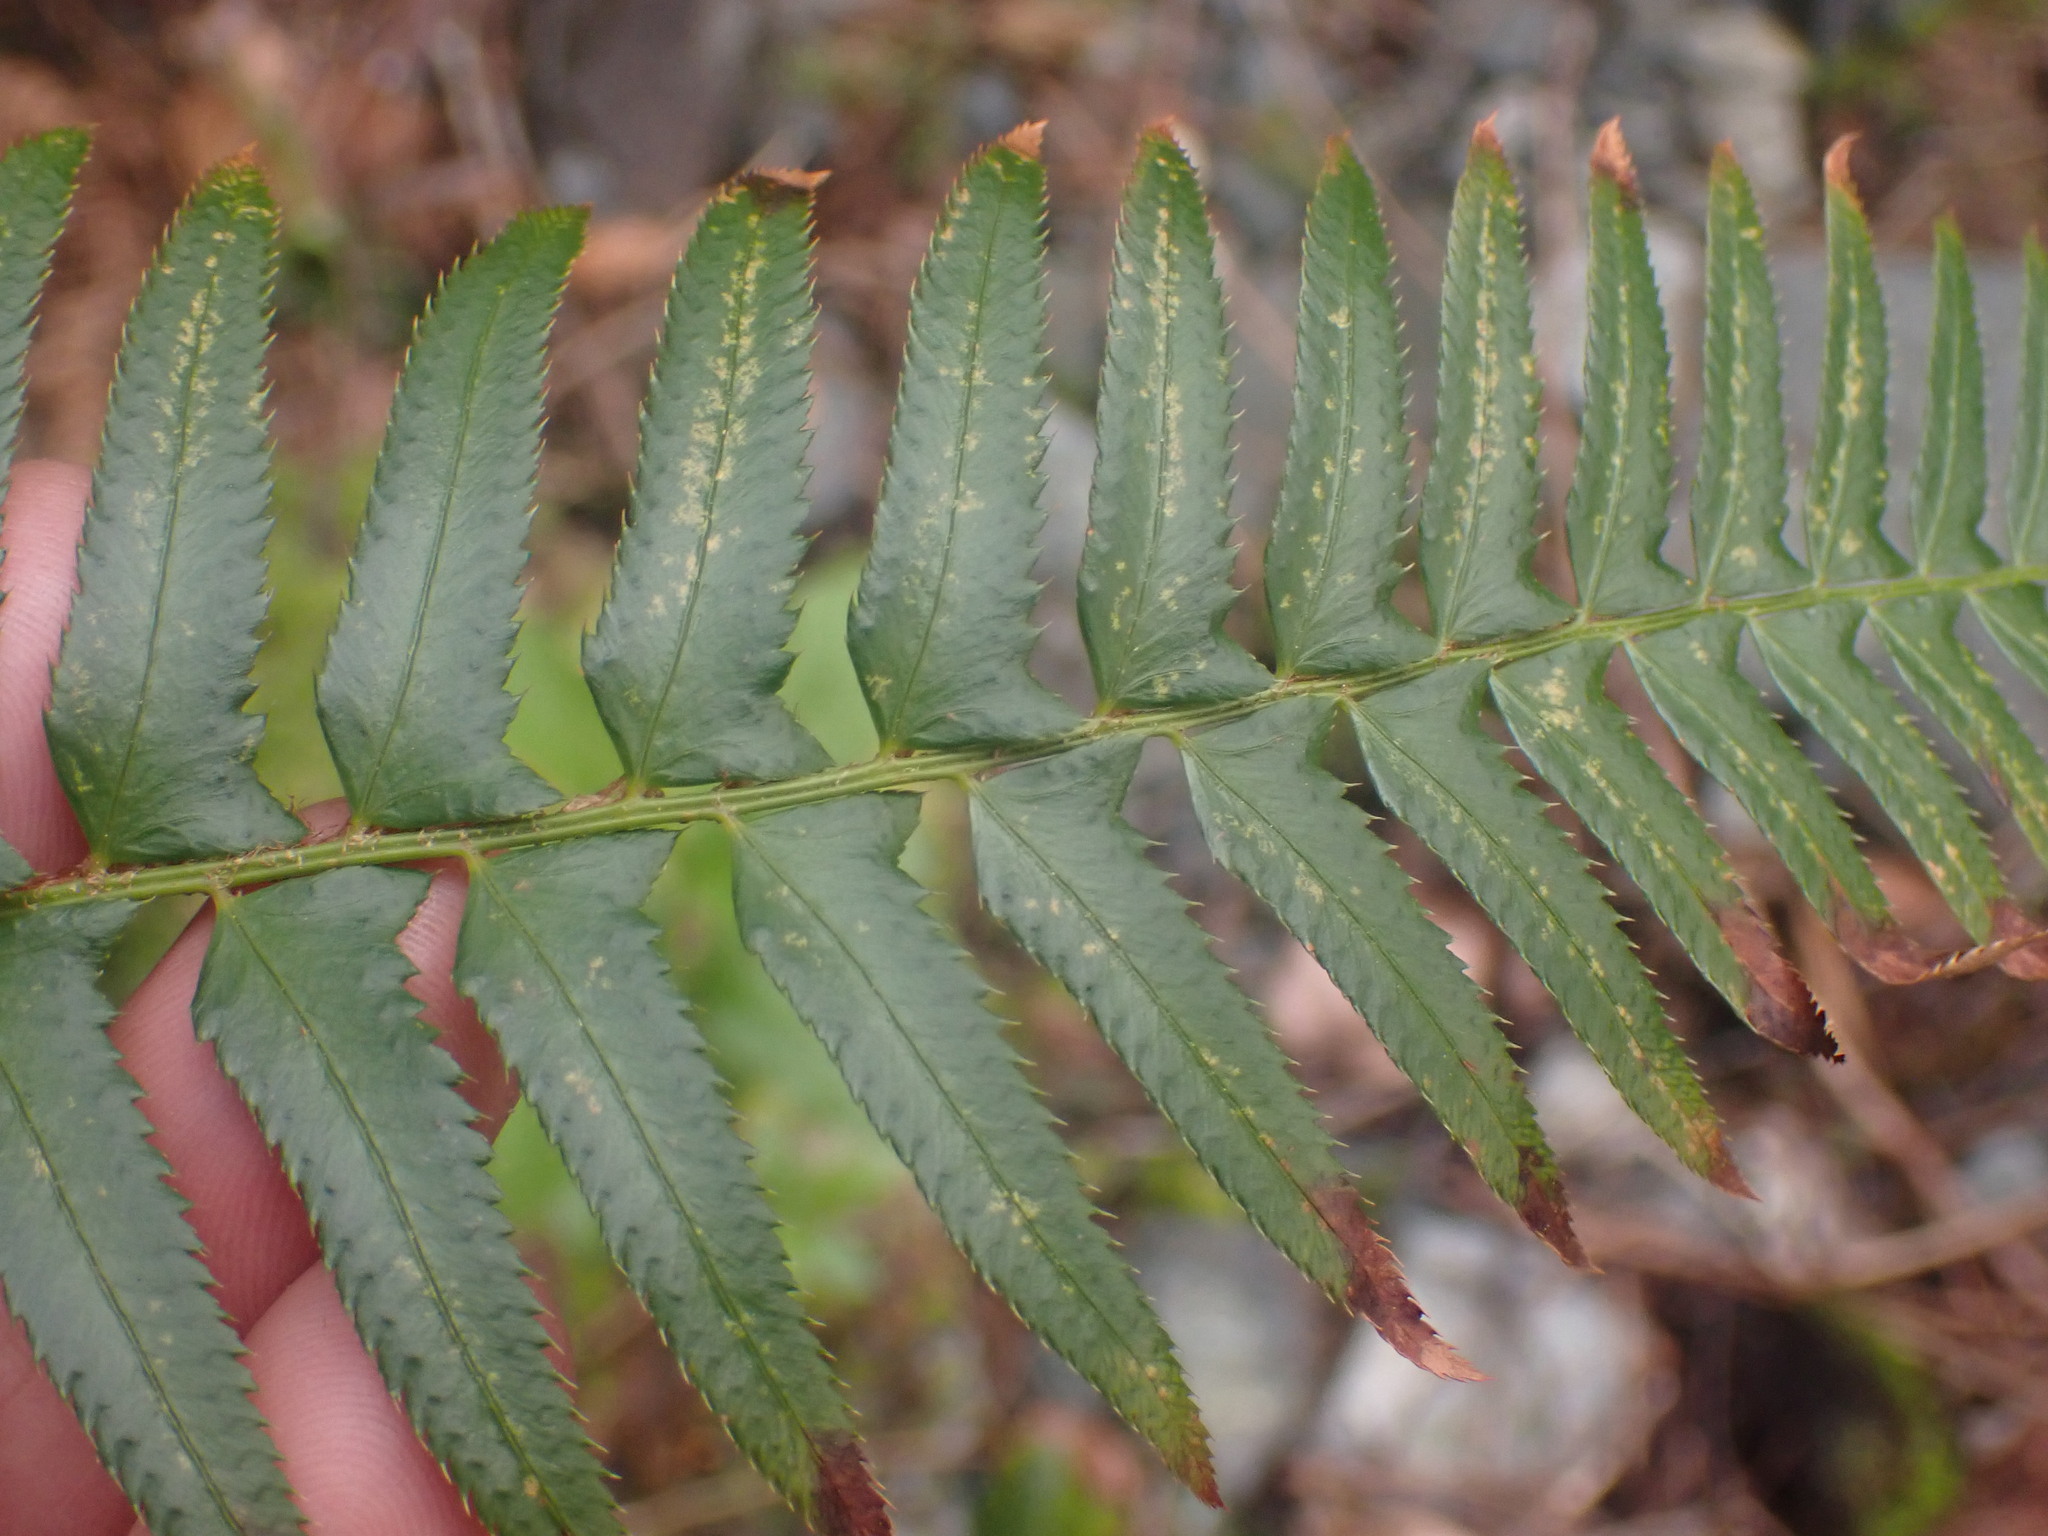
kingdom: Plantae
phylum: Tracheophyta
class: Polypodiopsida
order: Polypodiales
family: Dryopteridaceae
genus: Polystichum
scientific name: Polystichum munitum
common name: Western sword-fern
